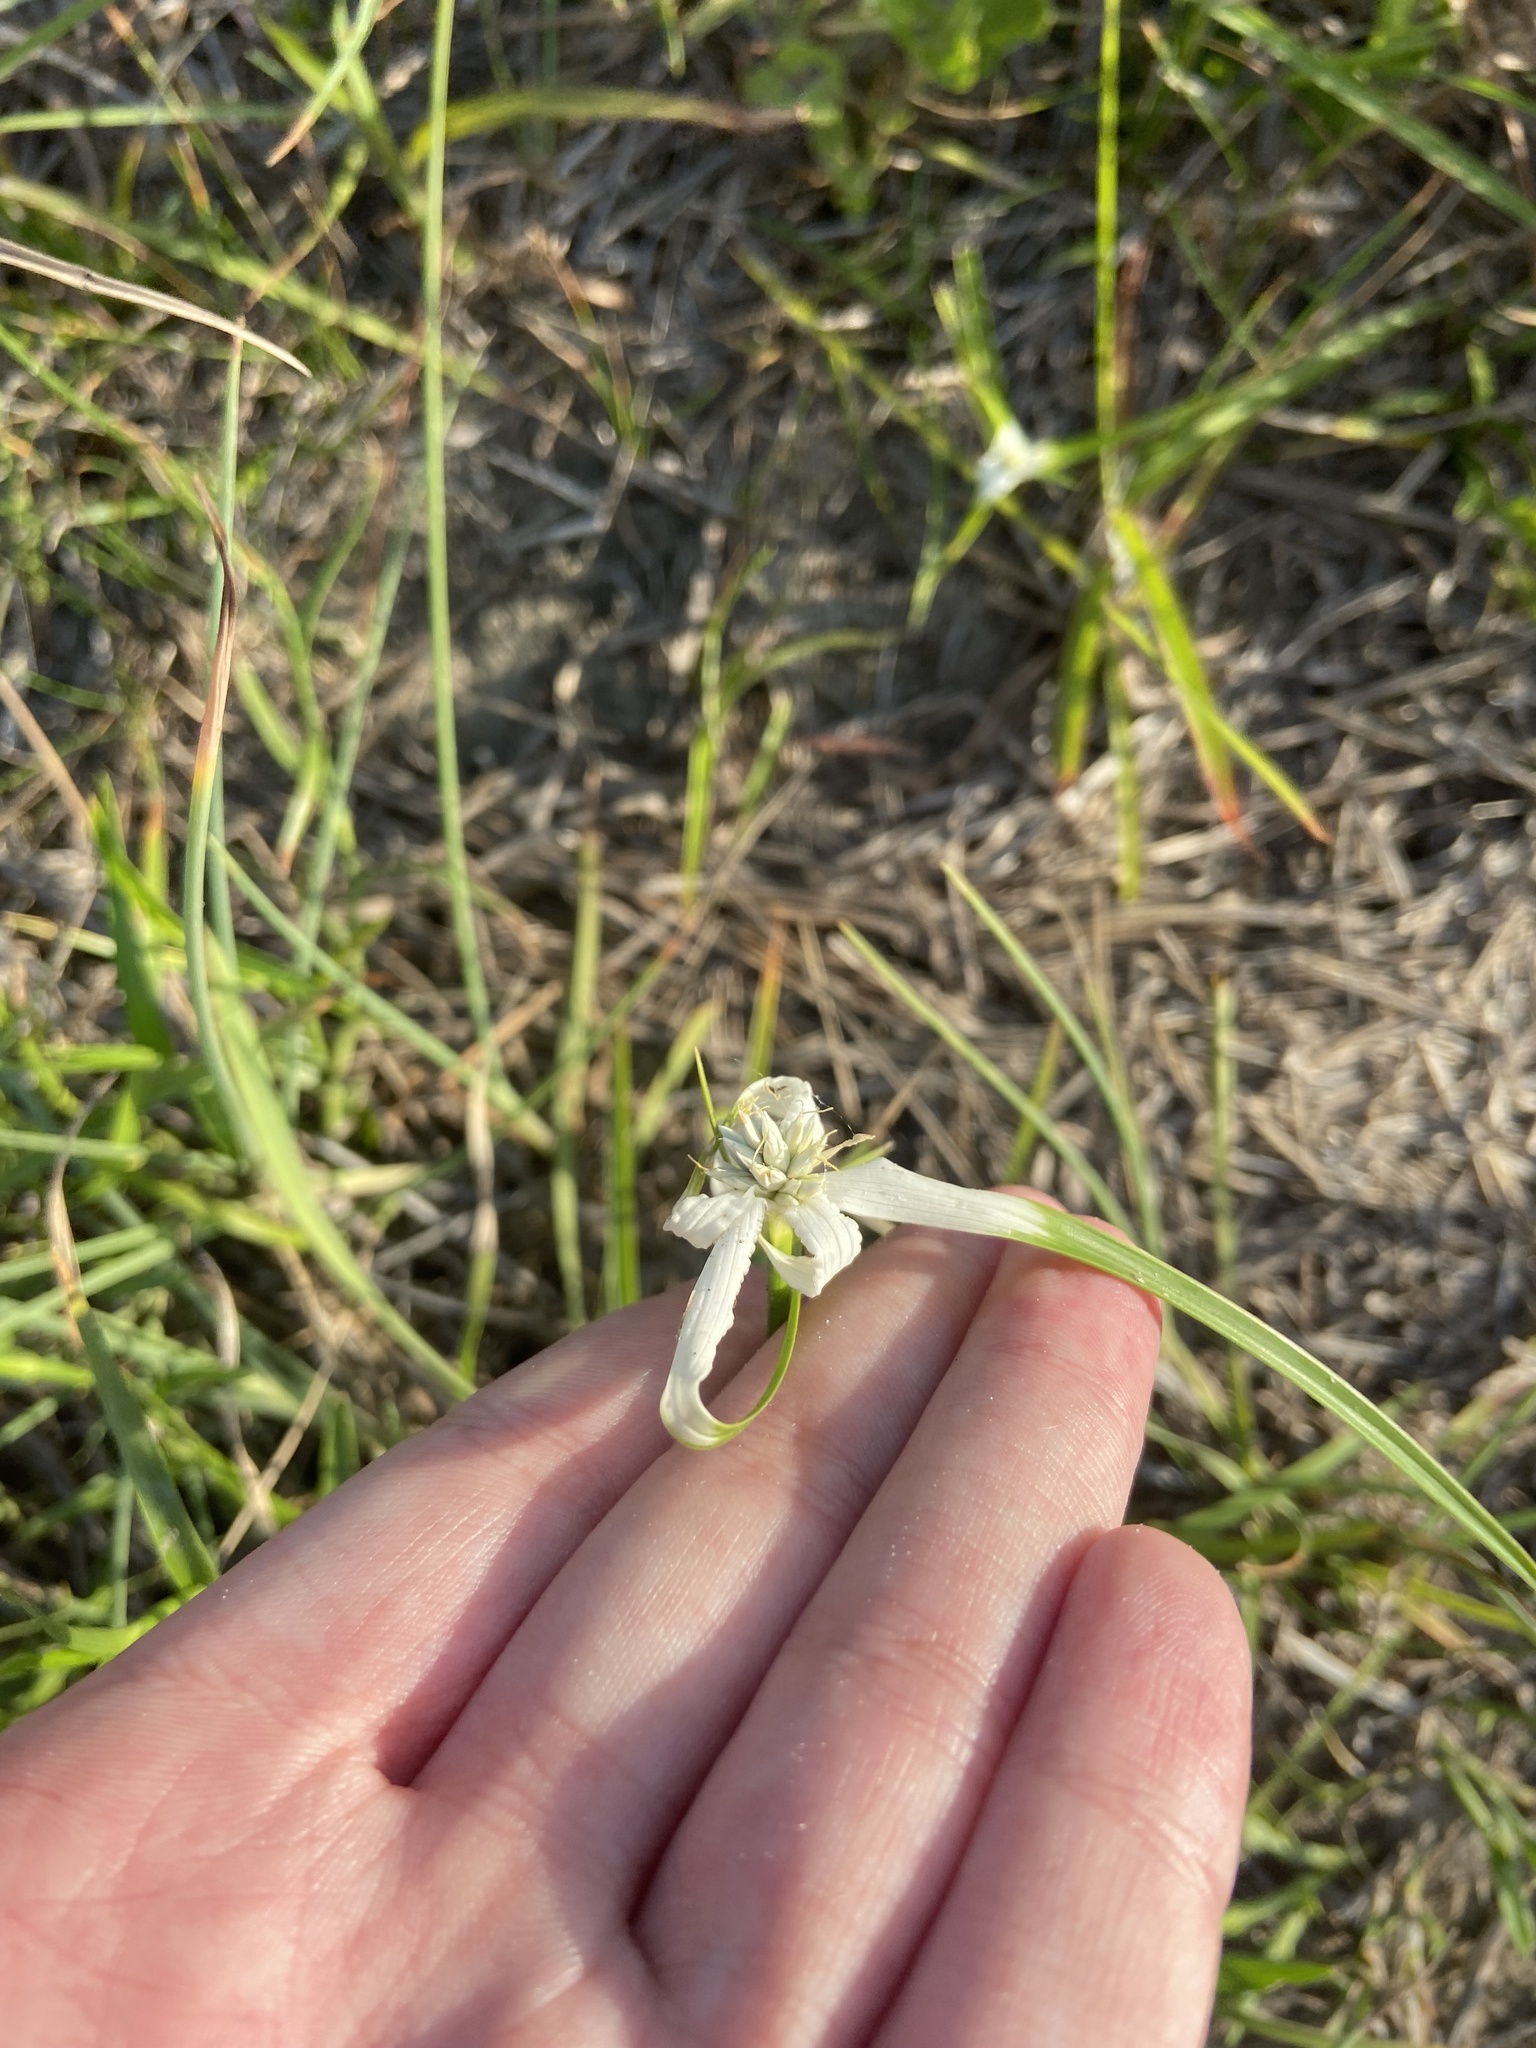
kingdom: Plantae
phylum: Tracheophyta
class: Liliopsida
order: Poales
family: Cyperaceae
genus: Rhynchospora
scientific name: Rhynchospora colorata
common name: Star sedge
